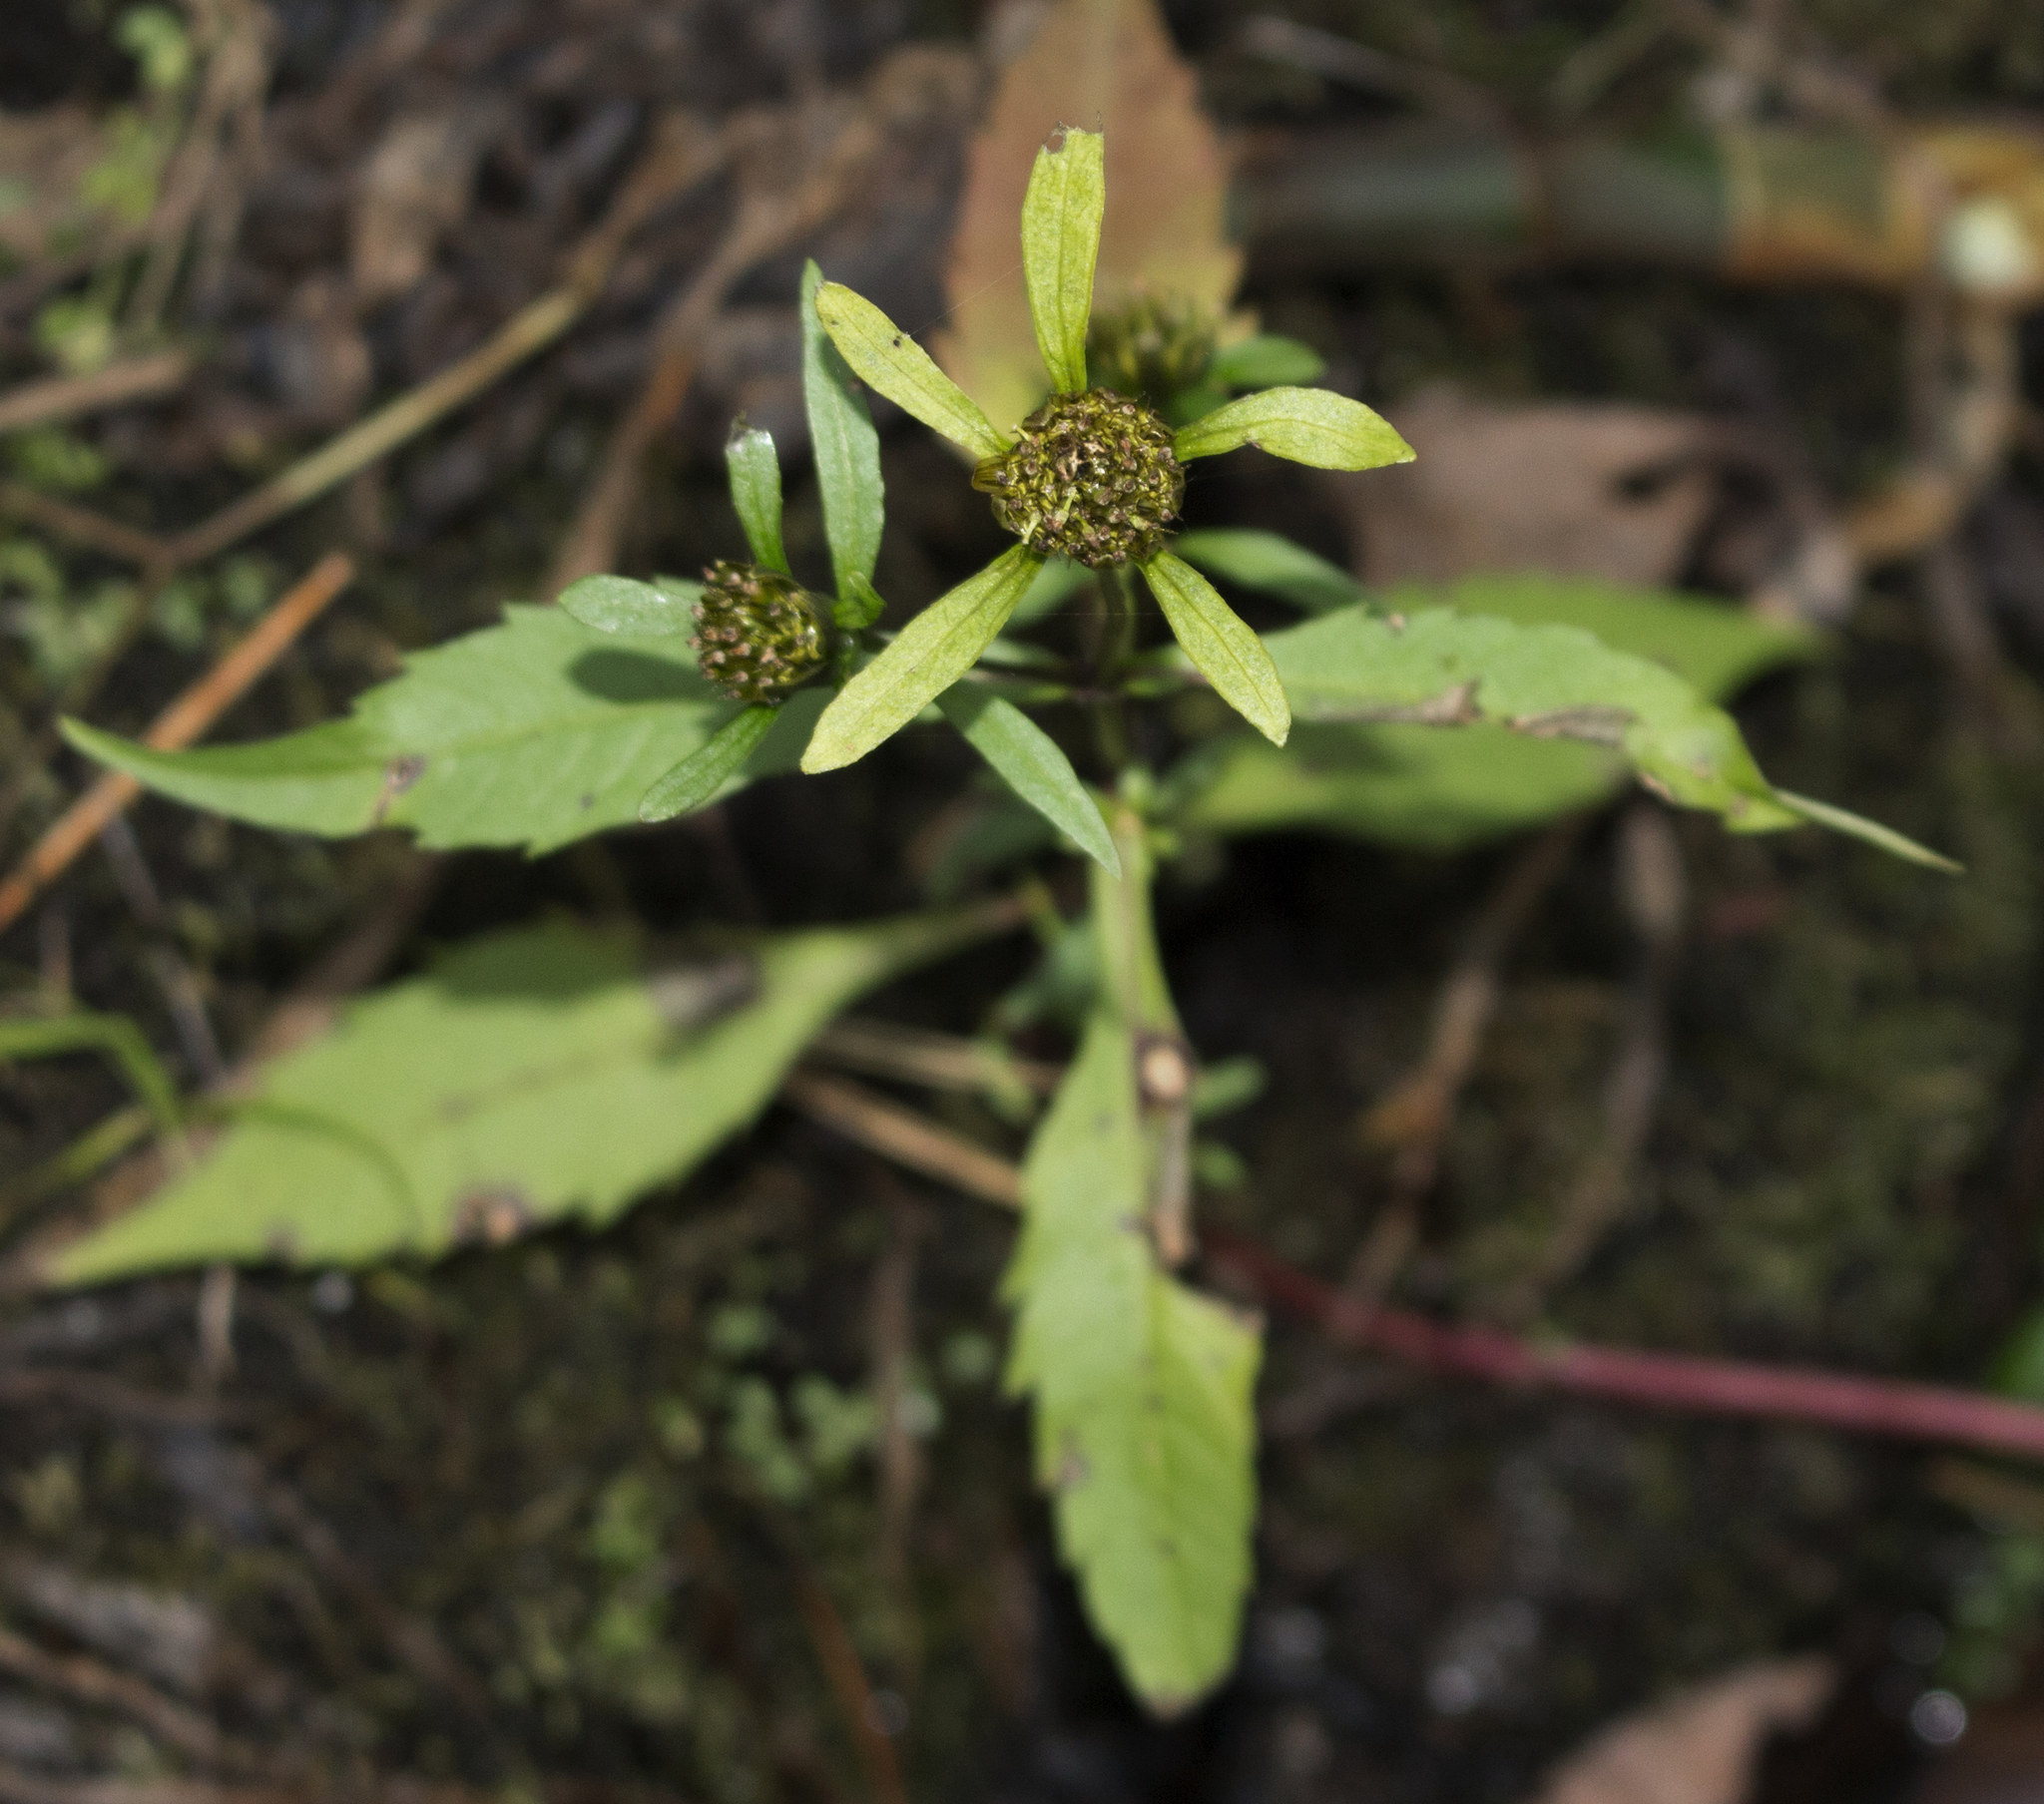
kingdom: Plantae
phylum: Tracheophyta
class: Magnoliopsida
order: Asterales
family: Asteraceae
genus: Bidens
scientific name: Bidens connata
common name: London bur-marigold
